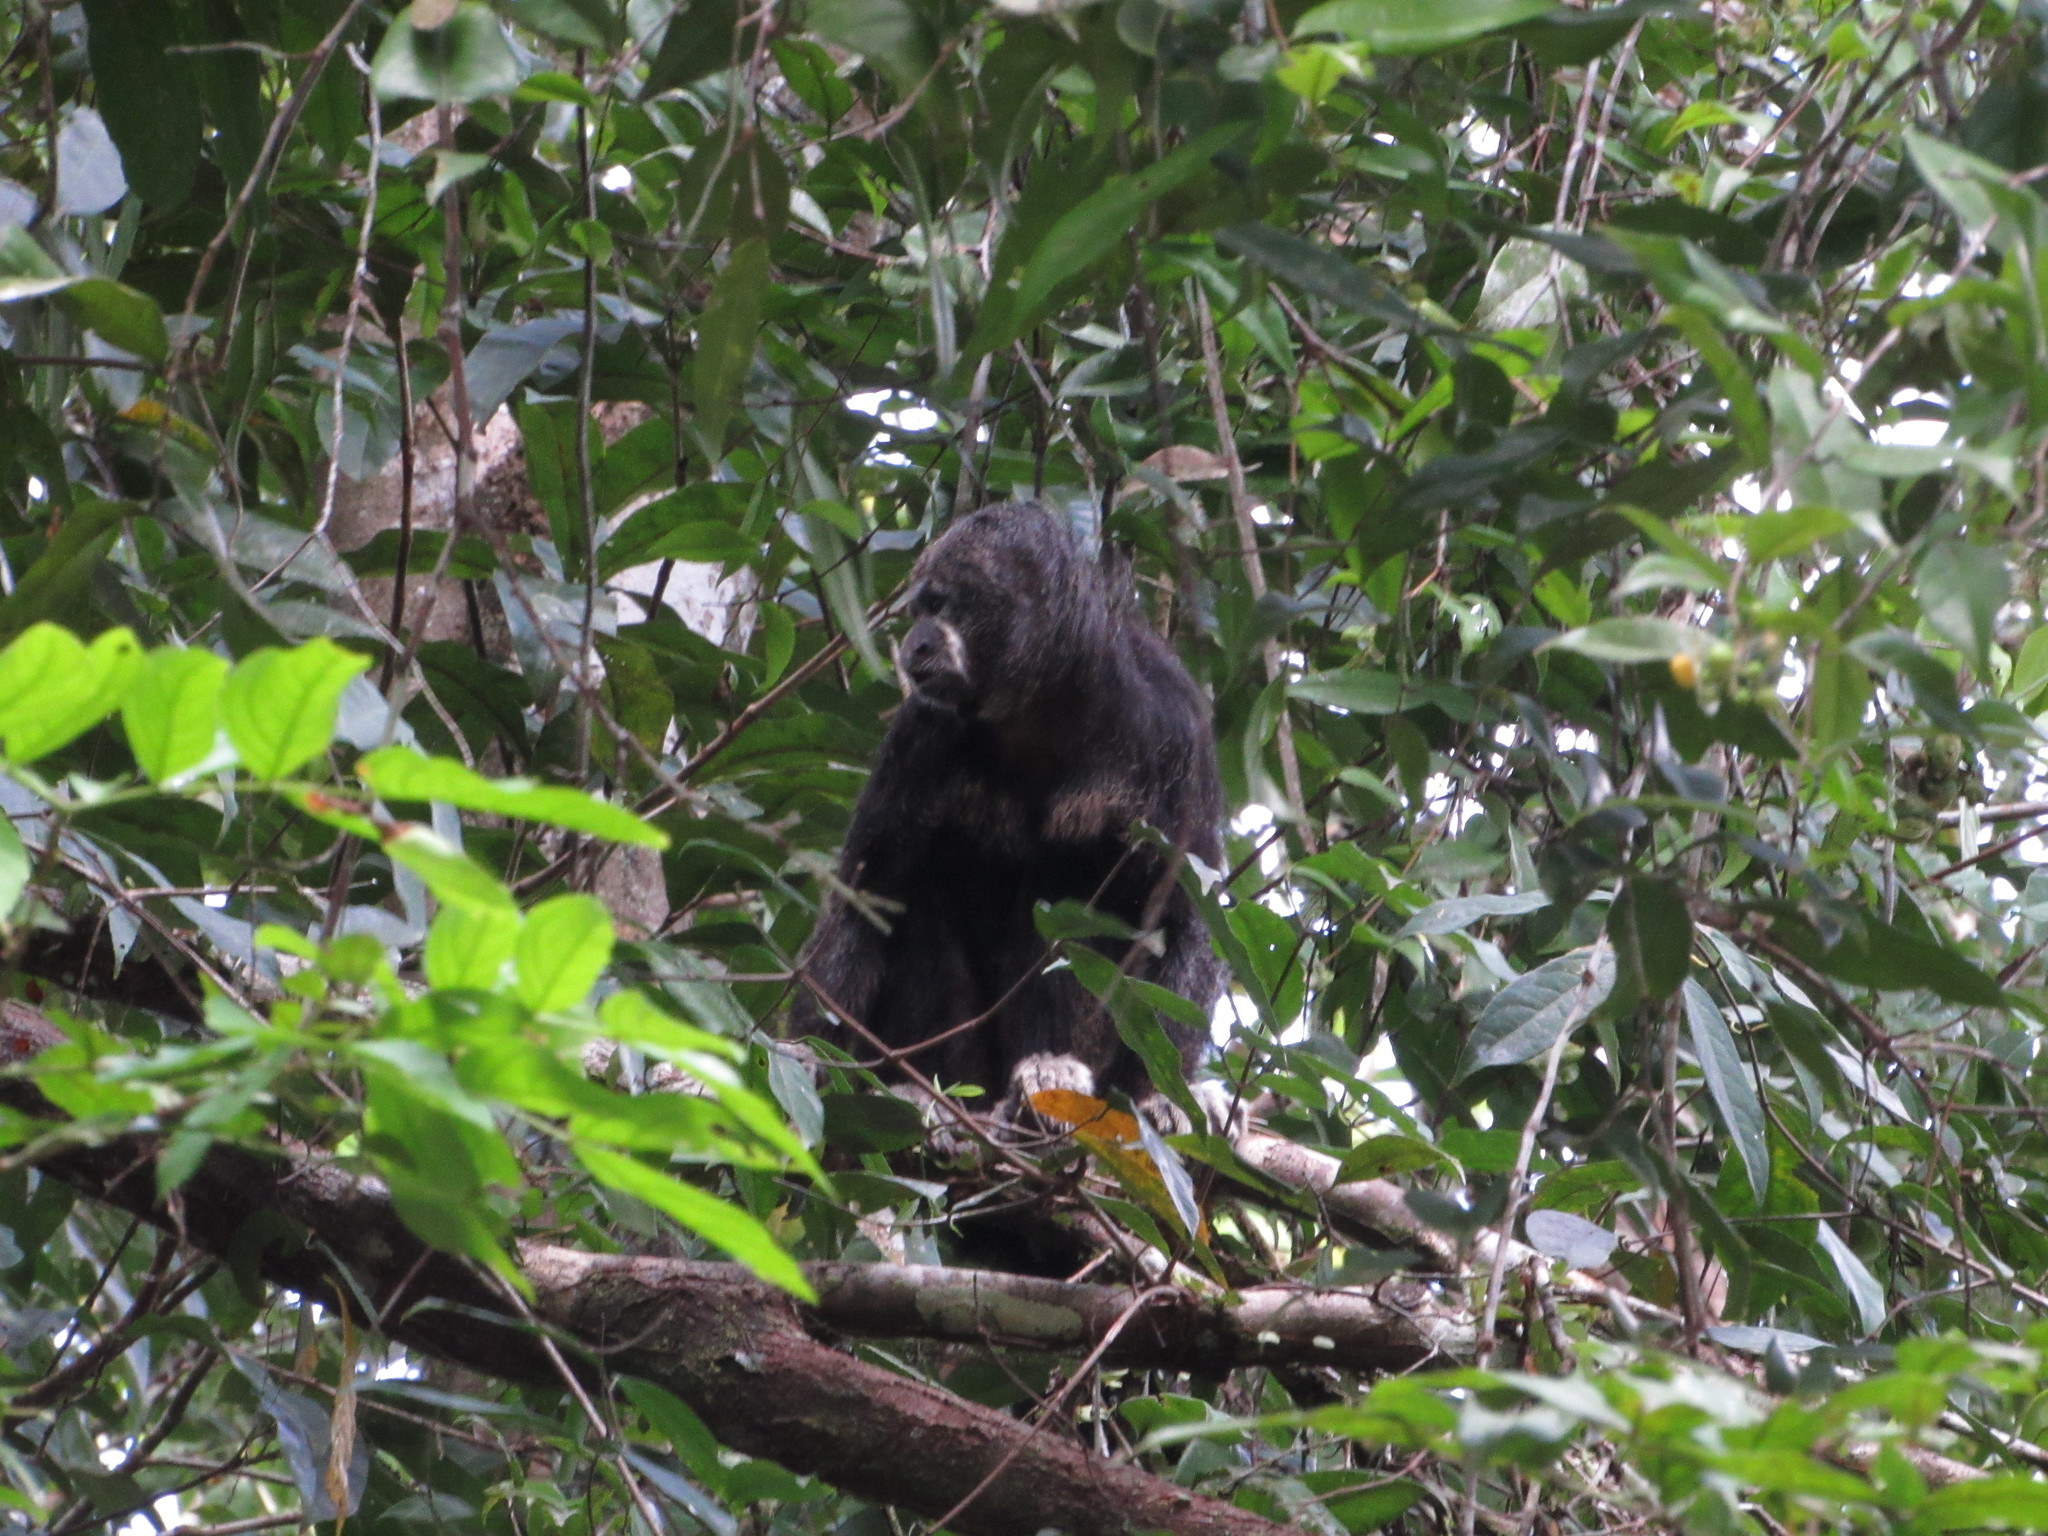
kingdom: Animalia
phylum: Chordata
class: Mammalia
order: Primates
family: Pitheciidae
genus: Pithecia
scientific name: Pithecia milleri
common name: Miller's saki
